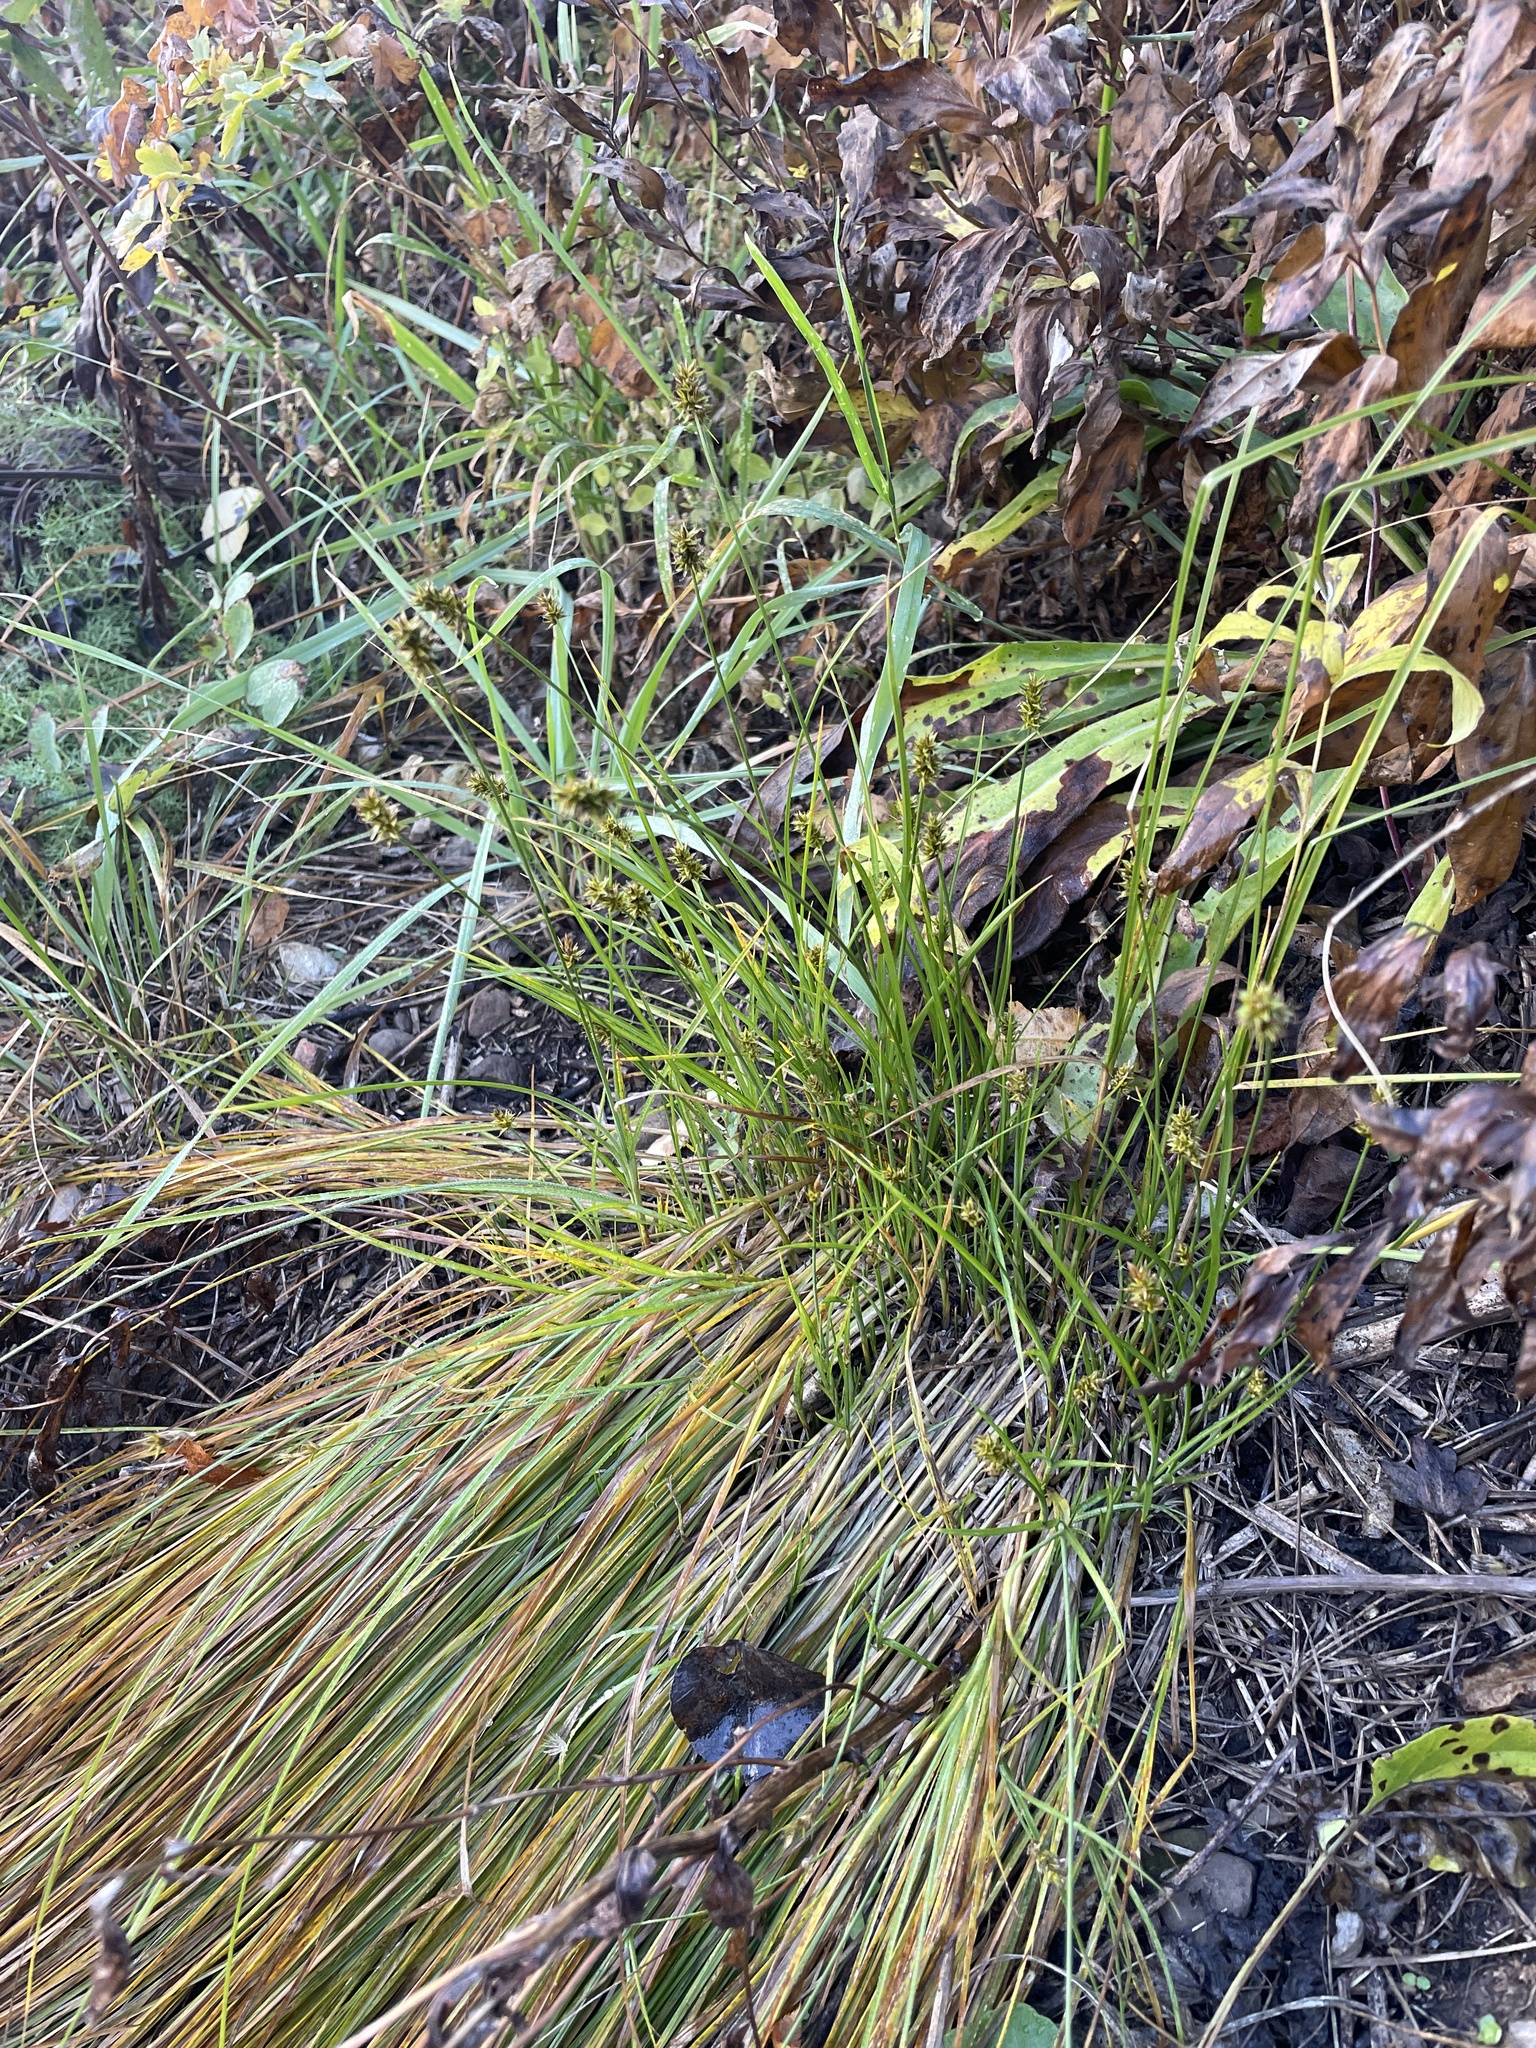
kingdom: Plantae
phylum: Tracheophyta
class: Liliopsida
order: Poales
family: Cyperaceae
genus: Carex
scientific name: Carex hoodii
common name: Hood's sedge
